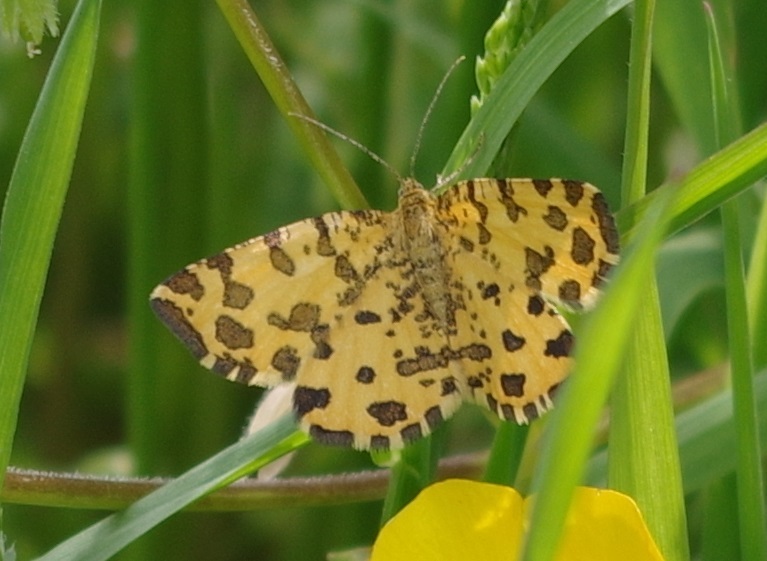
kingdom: Animalia
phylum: Arthropoda
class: Insecta
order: Lepidoptera
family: Geometridae
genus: Pseudopanthera
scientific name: Pseudopanthera macularia
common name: Speckled yellow
